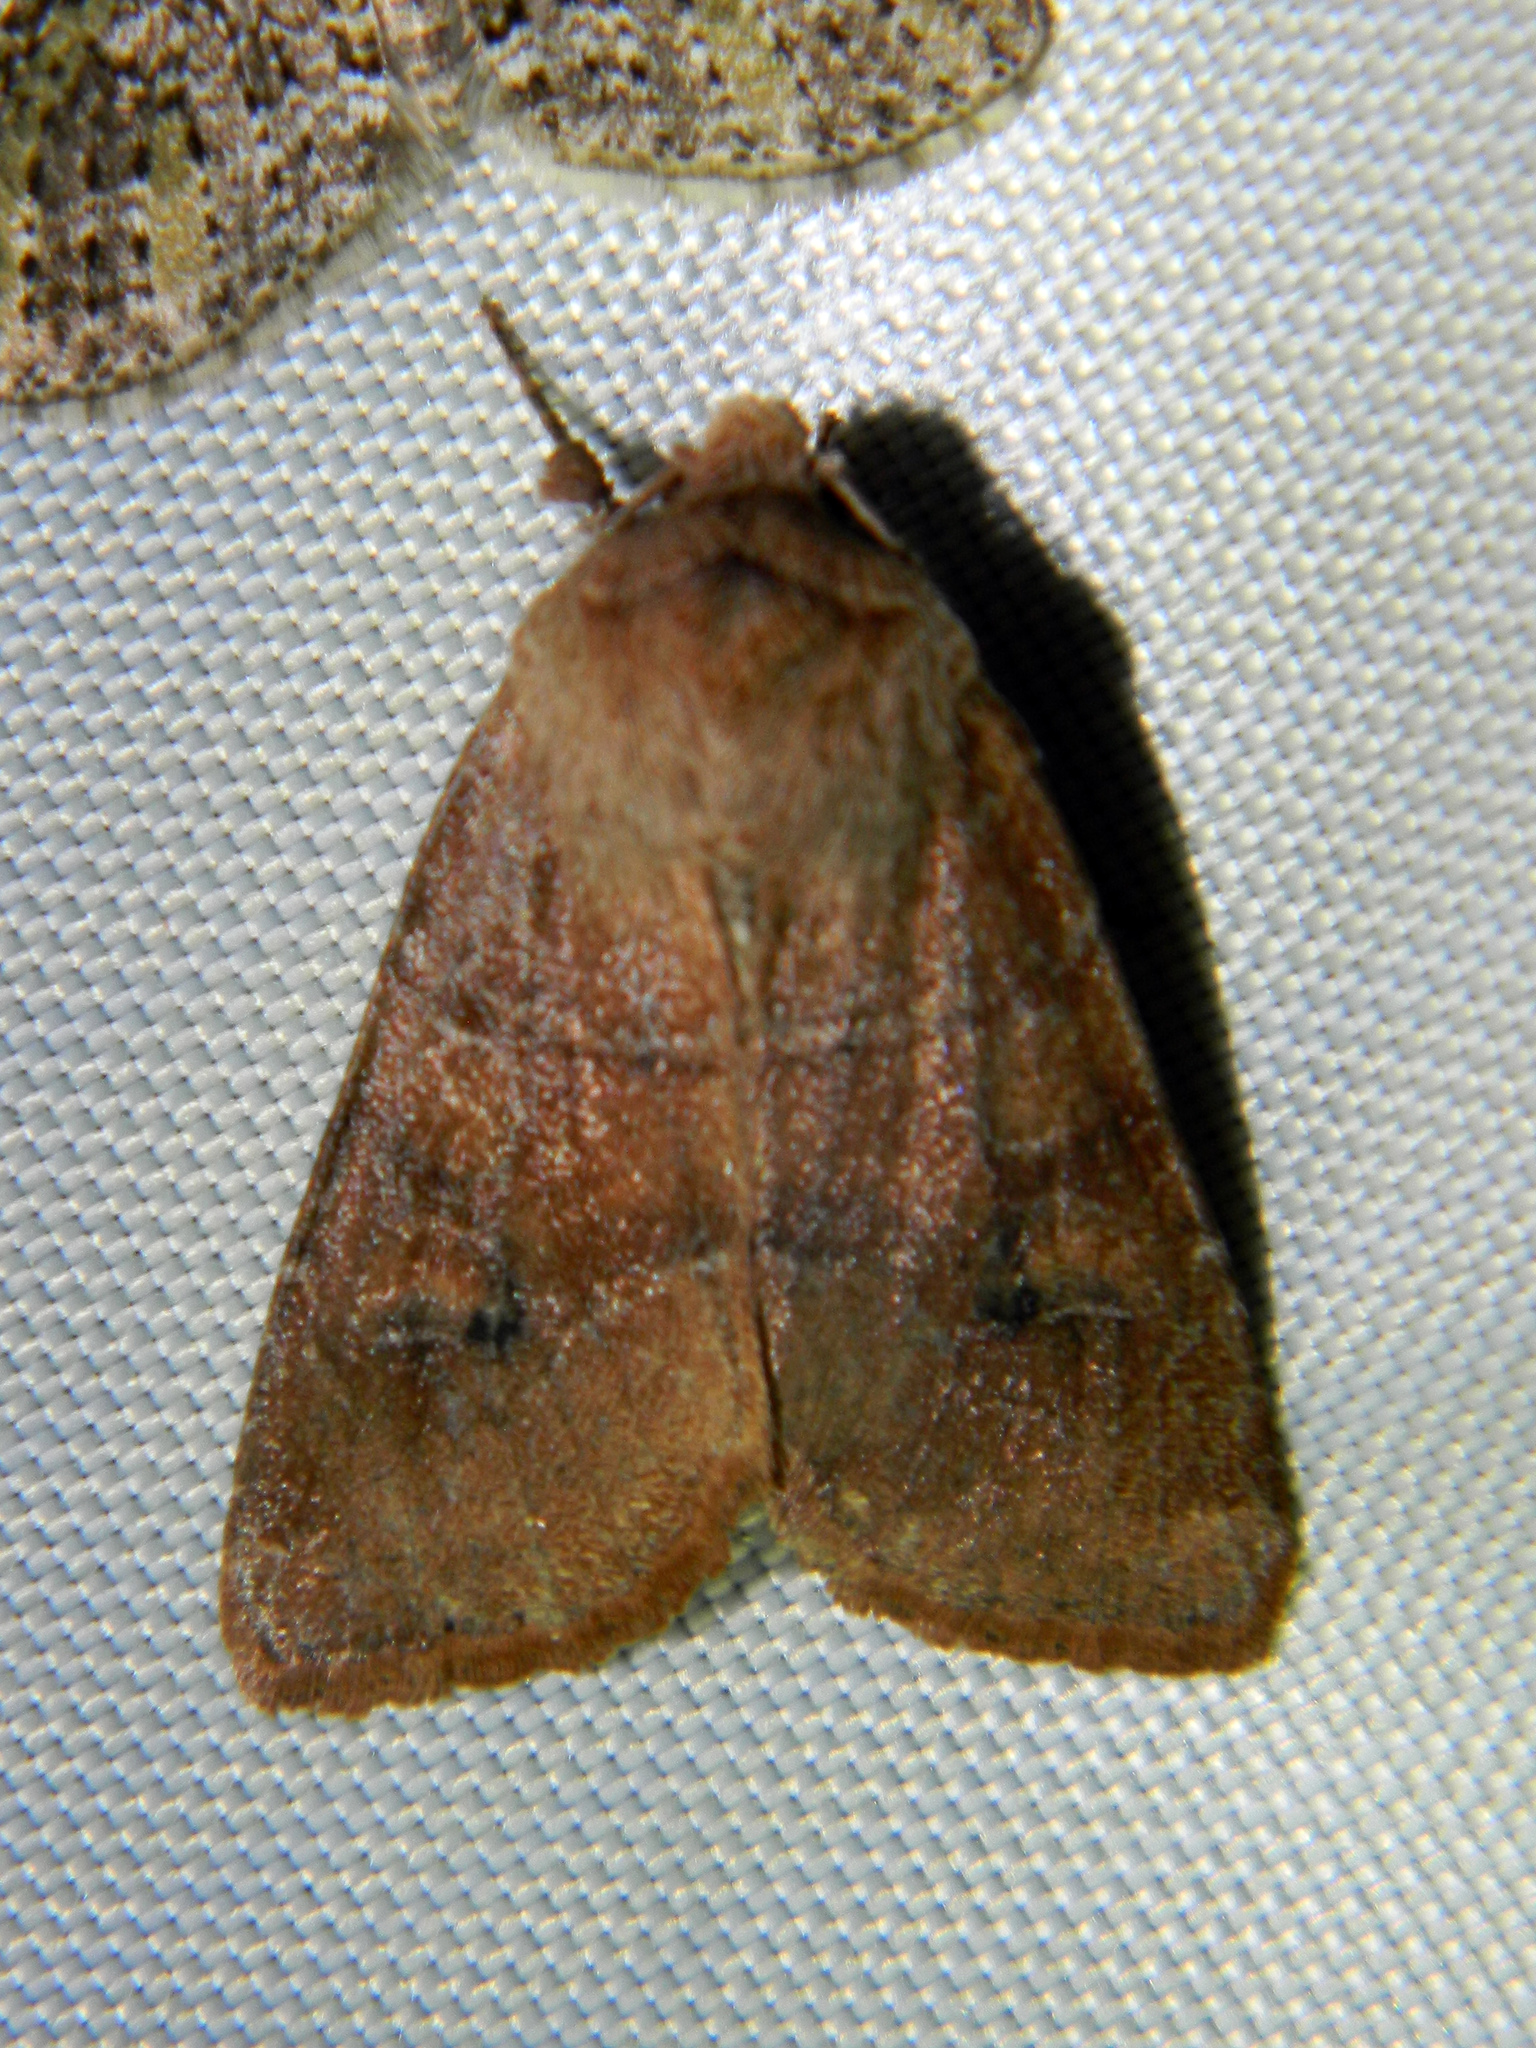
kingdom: Animalia
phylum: Arthropoda
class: Insecta
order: Lepidoptera
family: Noctuidae
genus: Crocigrapha
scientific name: Crocigrapha normani
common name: Norman's quaker
